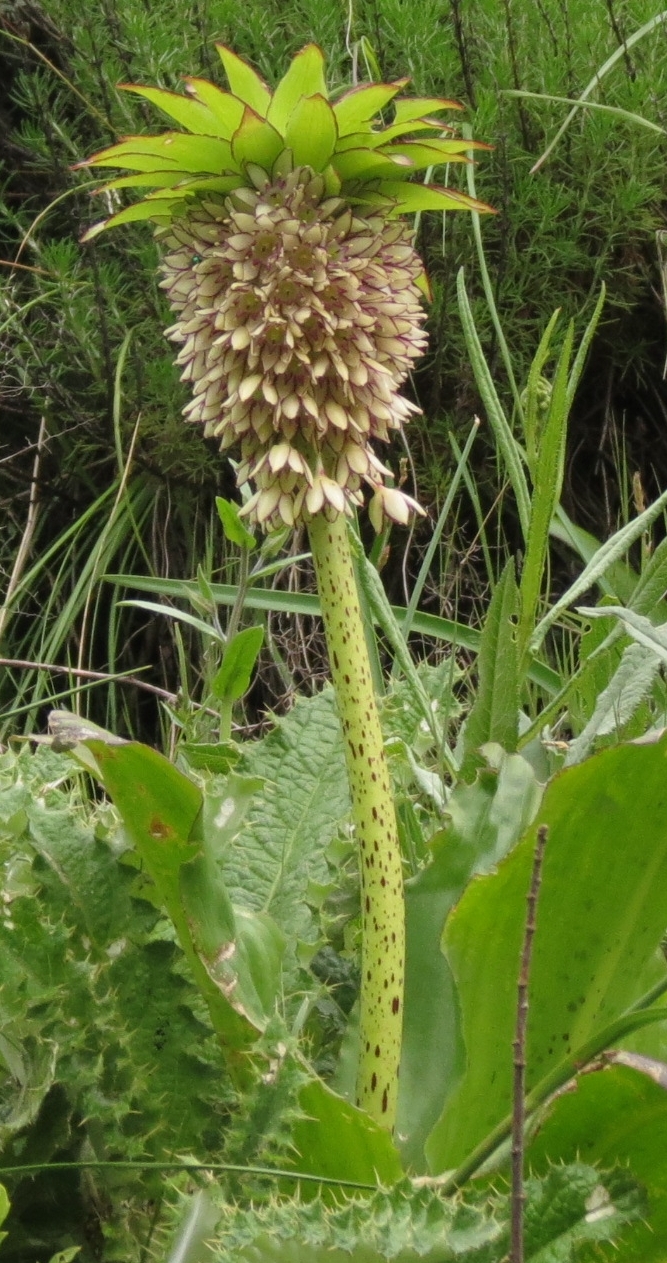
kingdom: Plantae
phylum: Tracheophyta
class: Liliopsida
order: Asparagales
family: Asparagaceae
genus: Eucomis
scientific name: Eucomis bicolor
